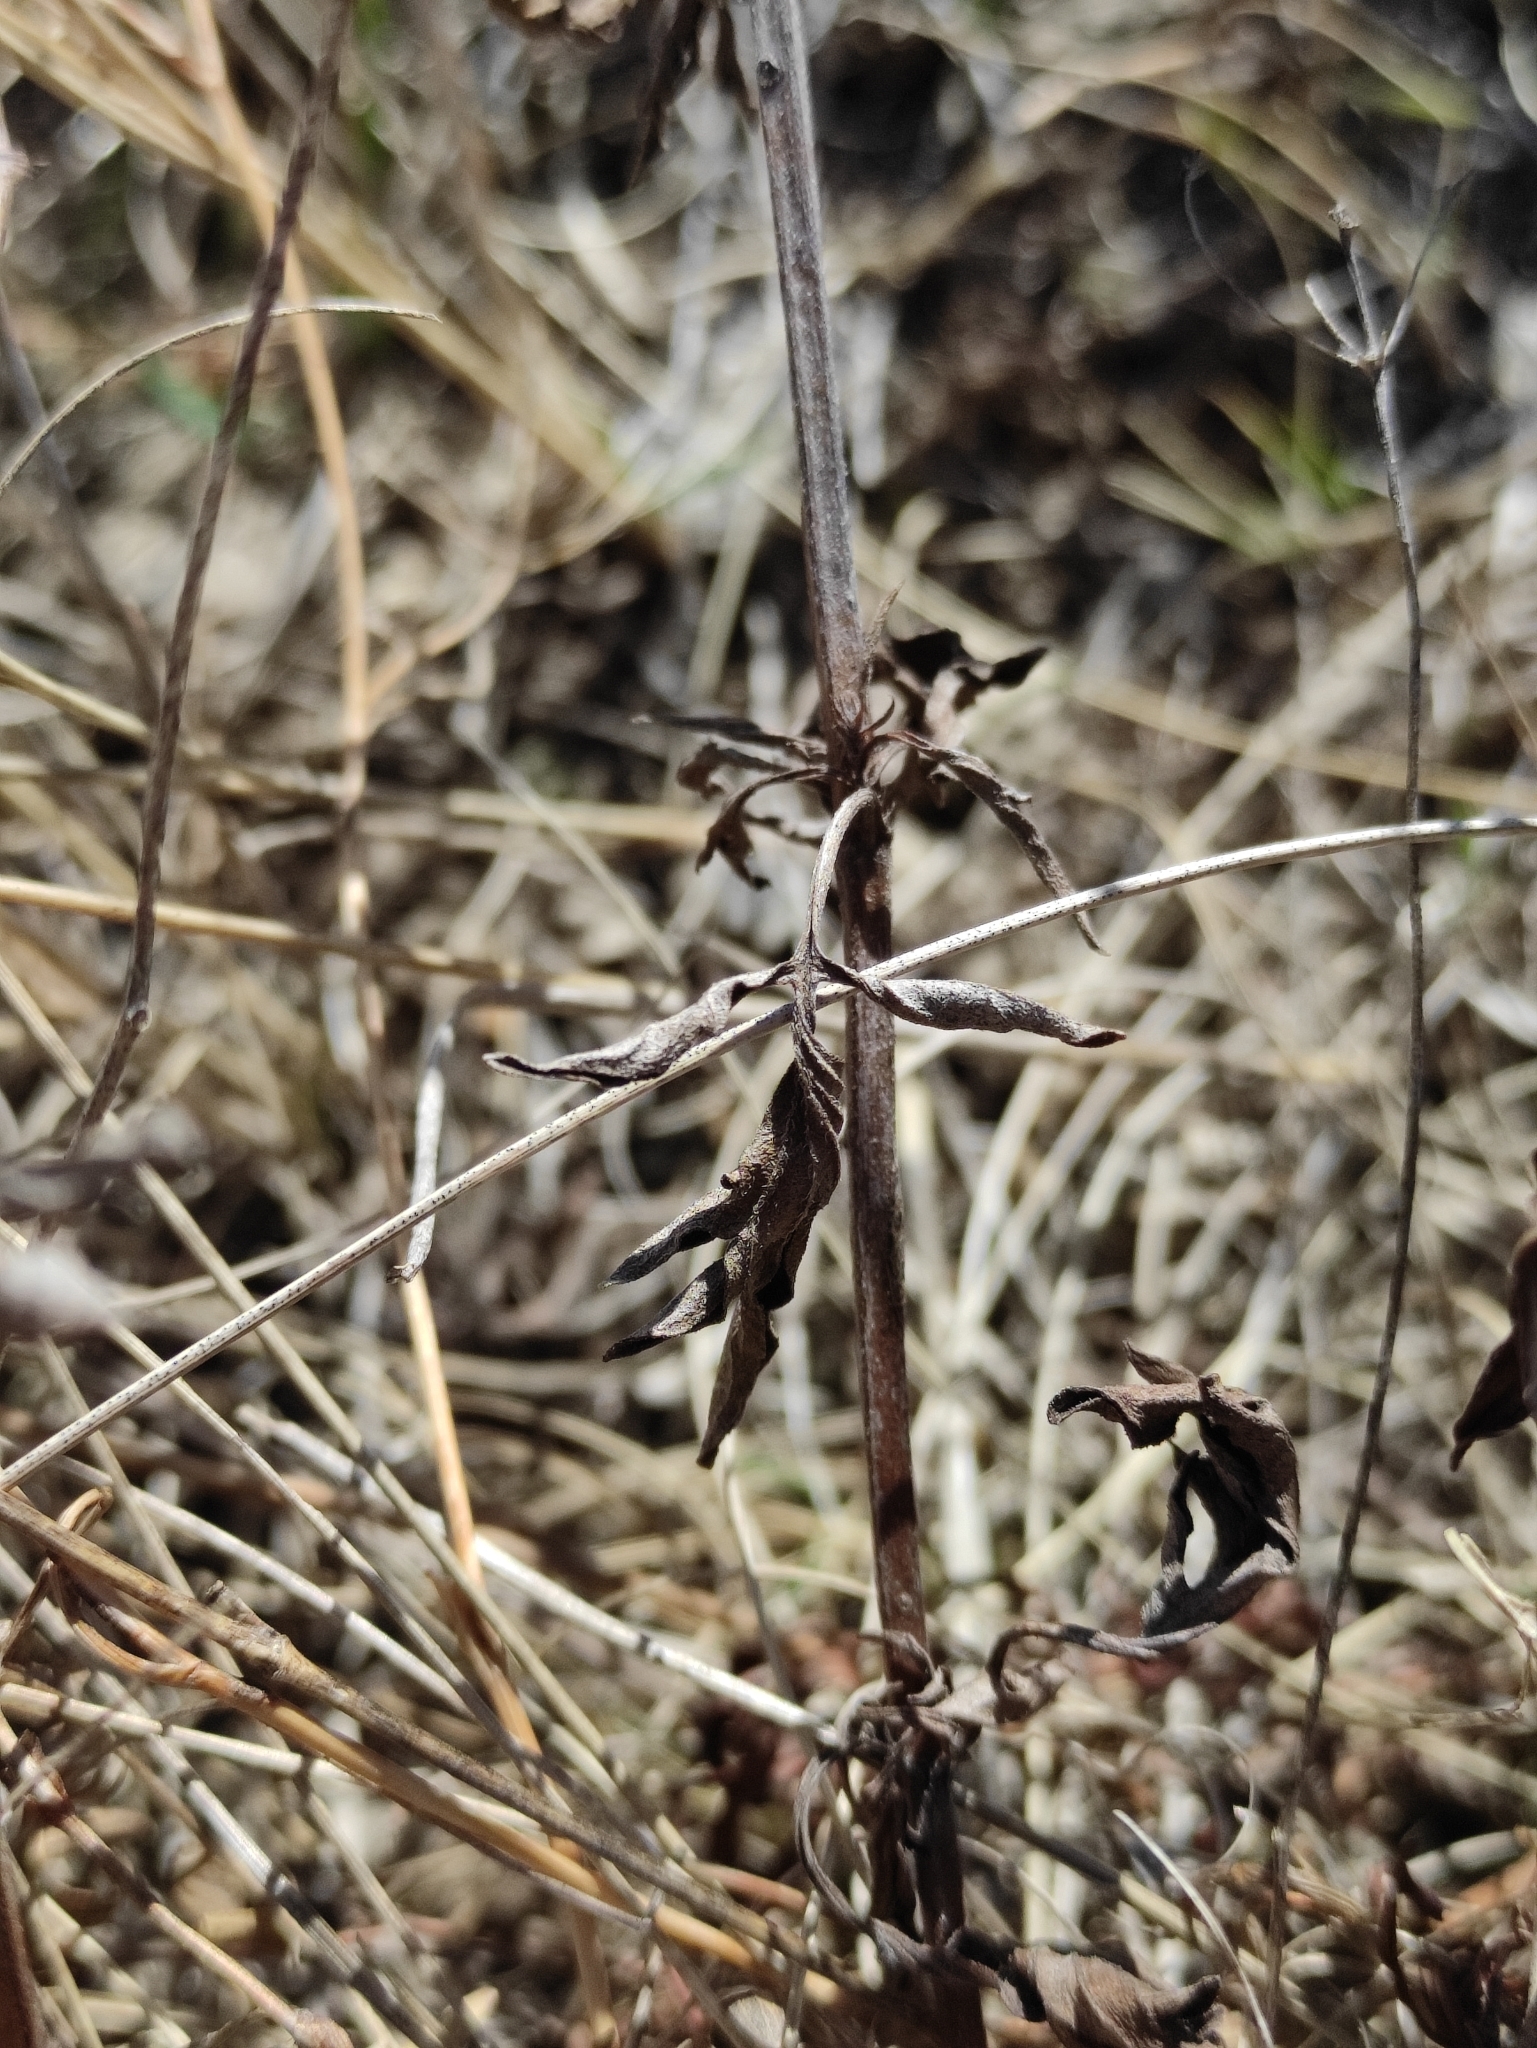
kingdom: Plantae
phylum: Tracheophyta
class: Magnoliopsida
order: Lamiales
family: Lamiaceae
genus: Nepeta
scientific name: Nepeta multifida
